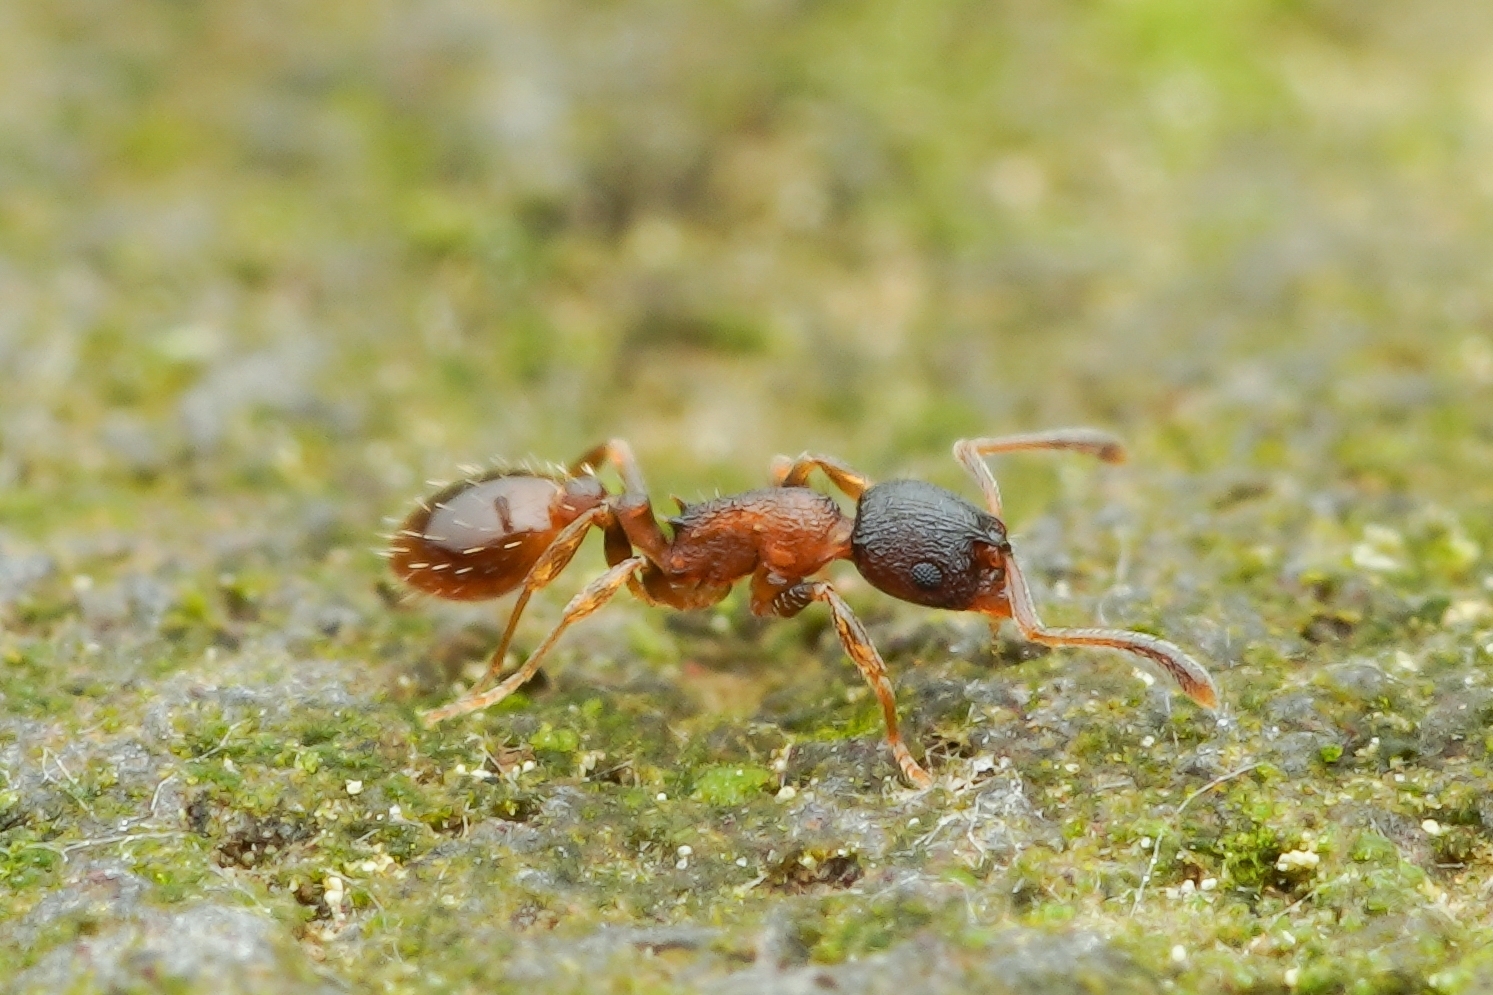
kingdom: Animalia
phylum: Arthropoda
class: Insecta
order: Hymenoptera
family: Formicidae
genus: Temnothorax
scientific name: Temnothorax
